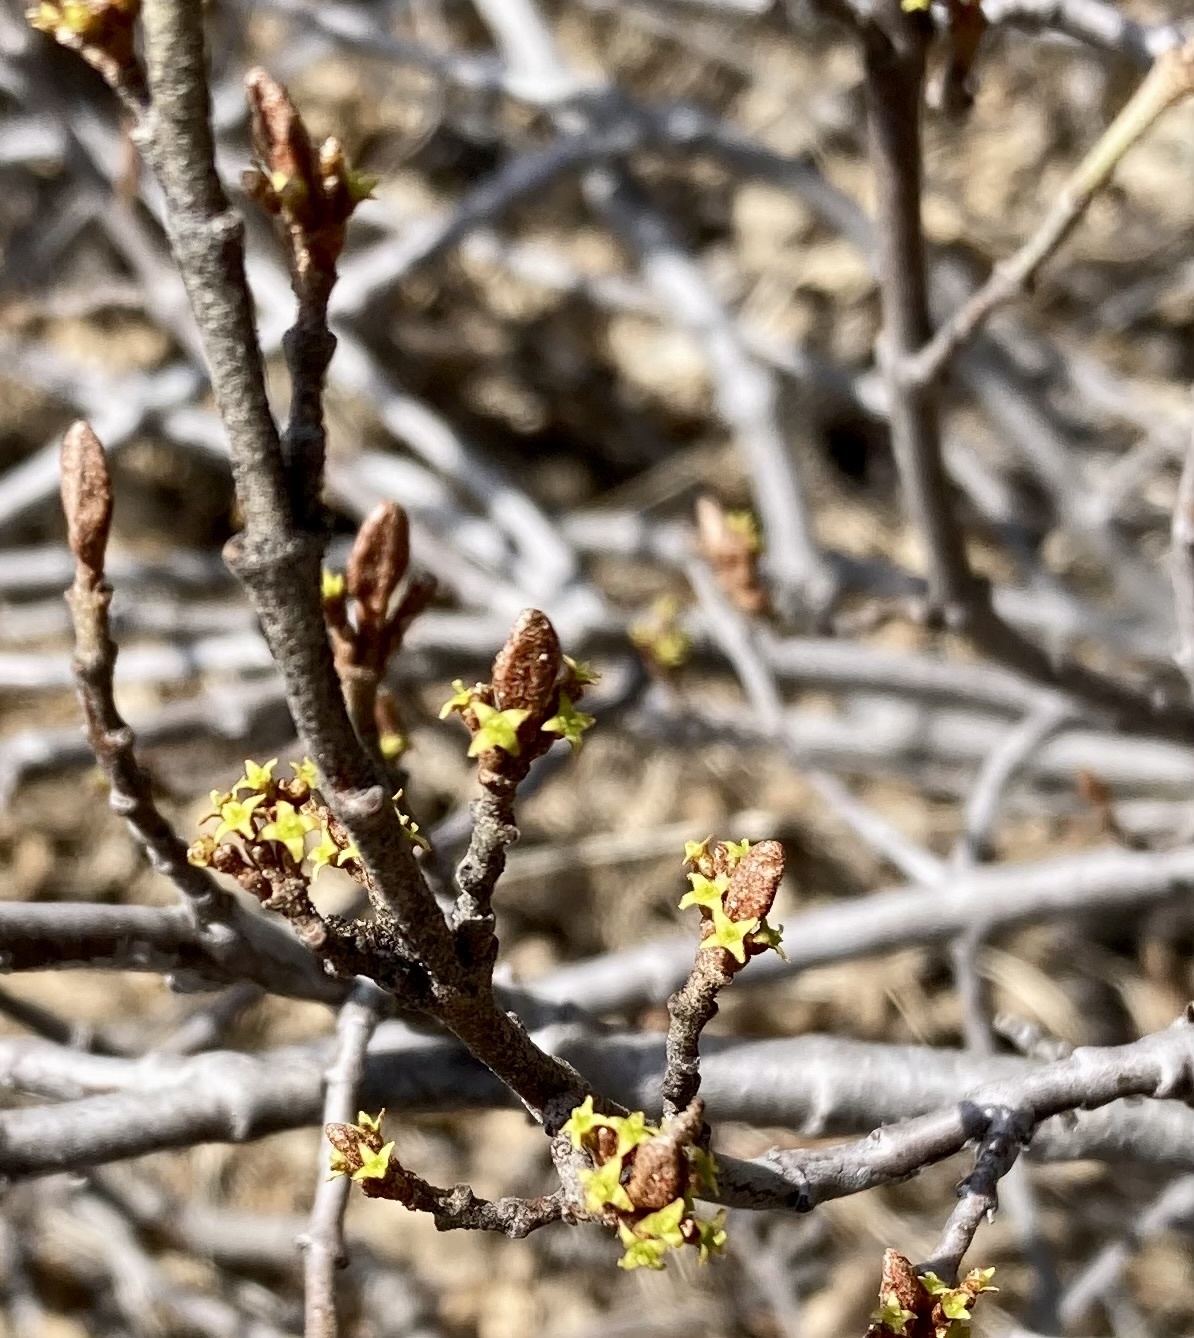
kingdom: Plantae
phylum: Tracheophyta
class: Magnoliopsida
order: Rosales
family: Elaeagnaceae
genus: Shepherdia
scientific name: Shepherdia canadensis
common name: Soapberry
